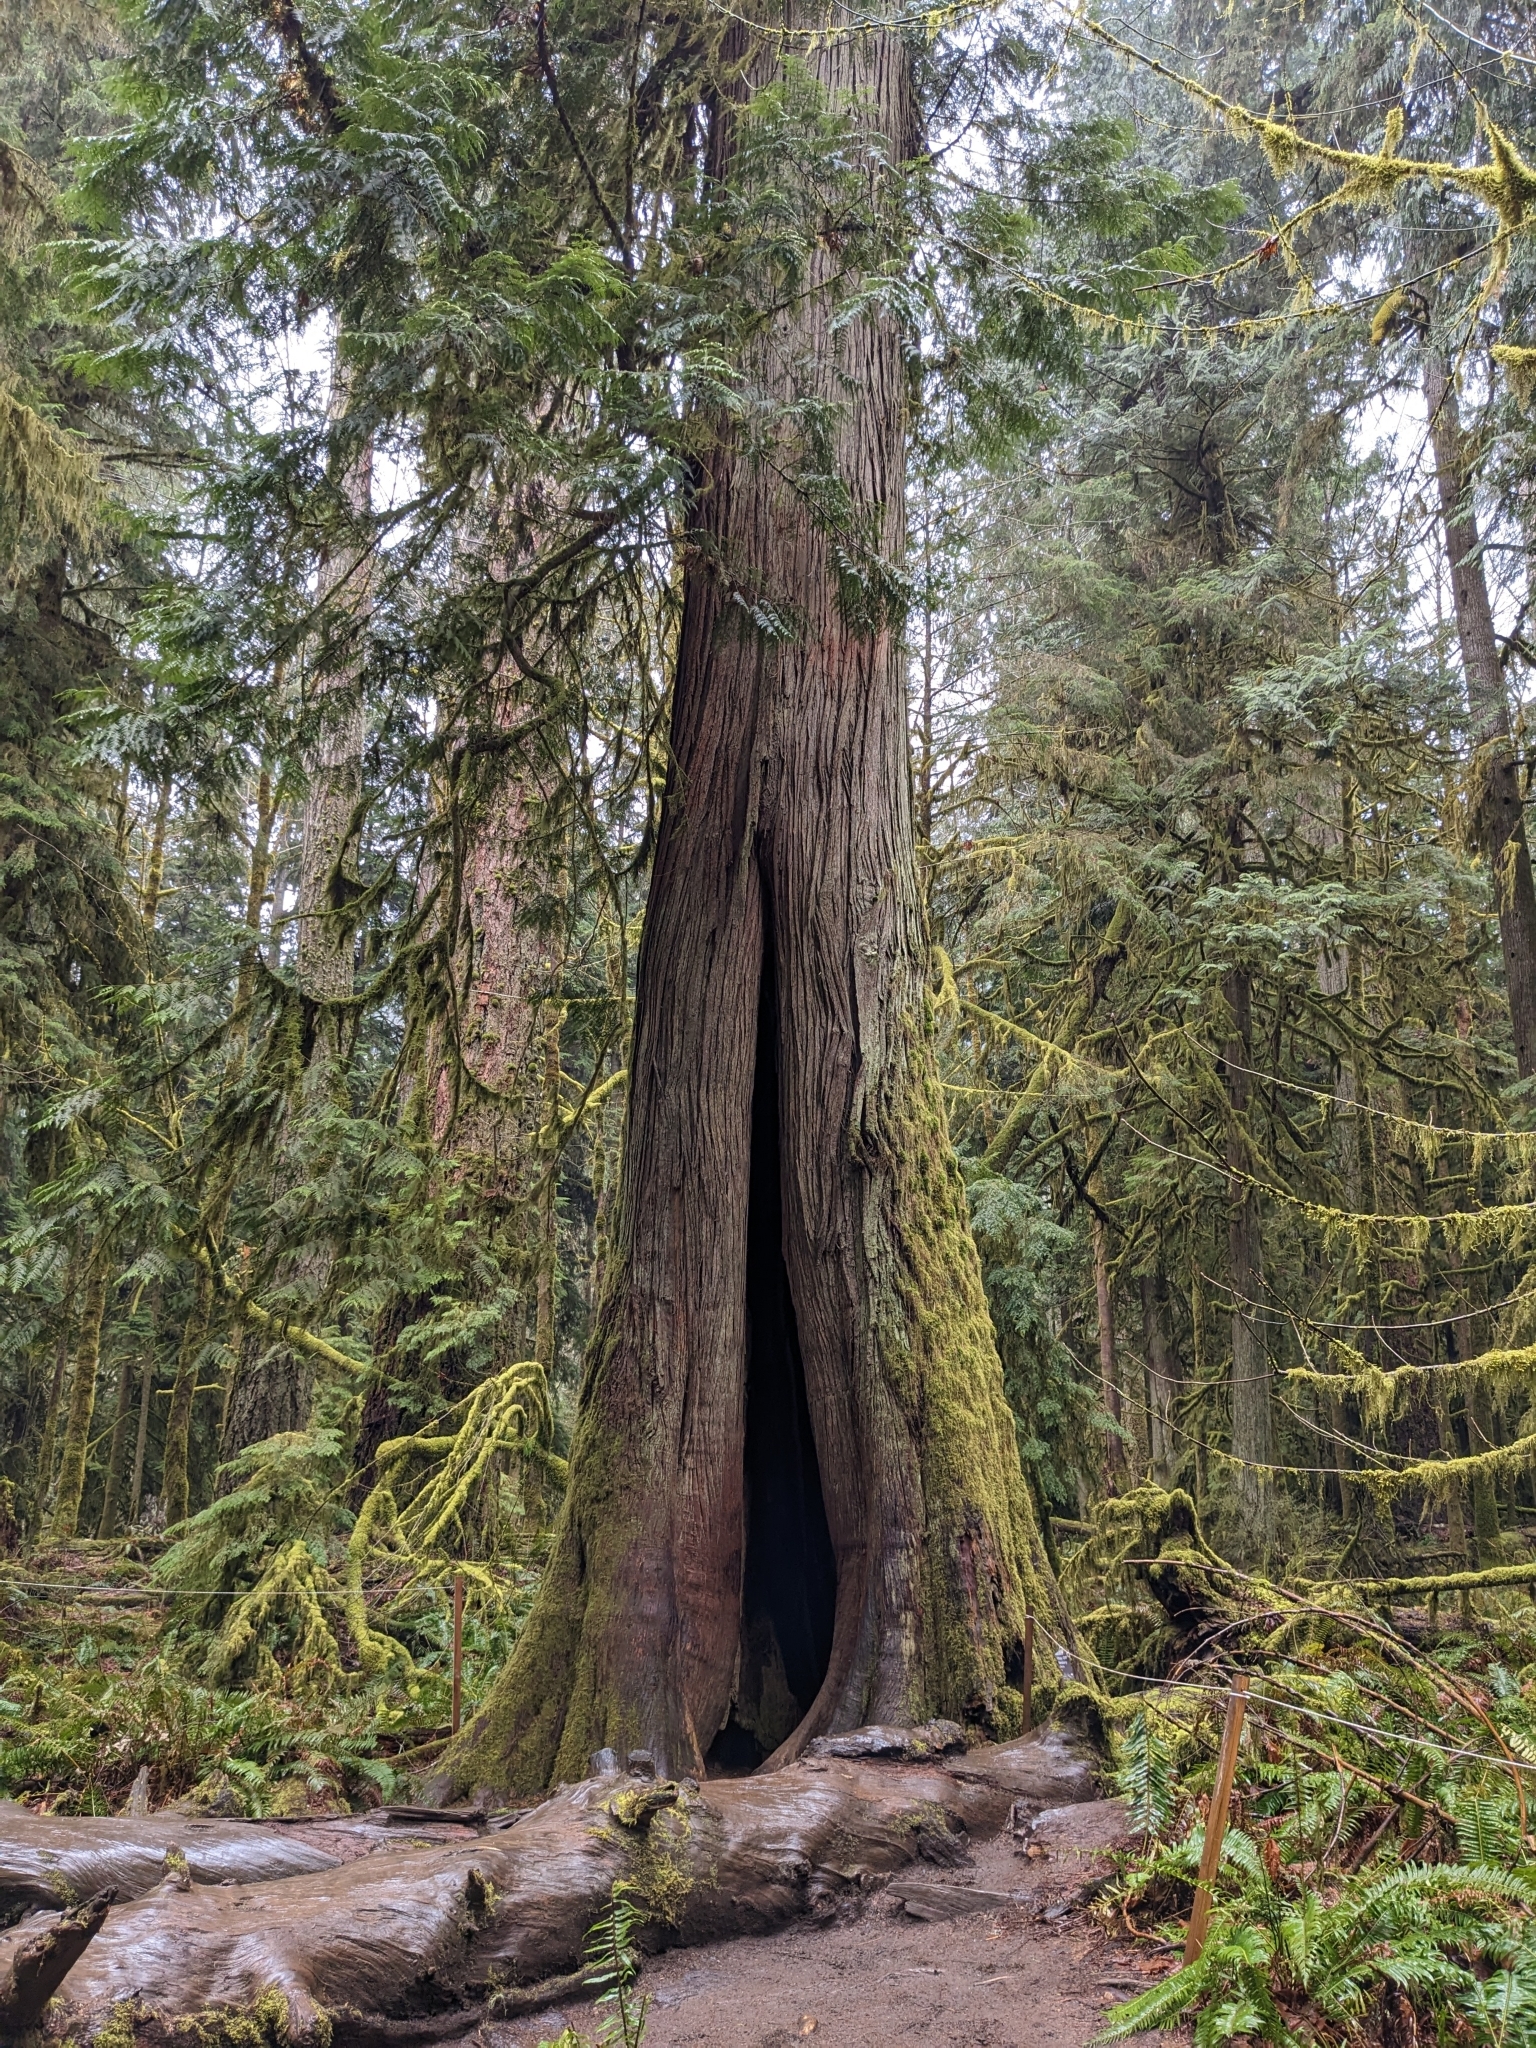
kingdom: Plantae
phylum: Tracheophyta
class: Pinopsida
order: Pinales
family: Cupressaceae
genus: Thuja
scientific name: Thuja plicata
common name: Western red-cedar
